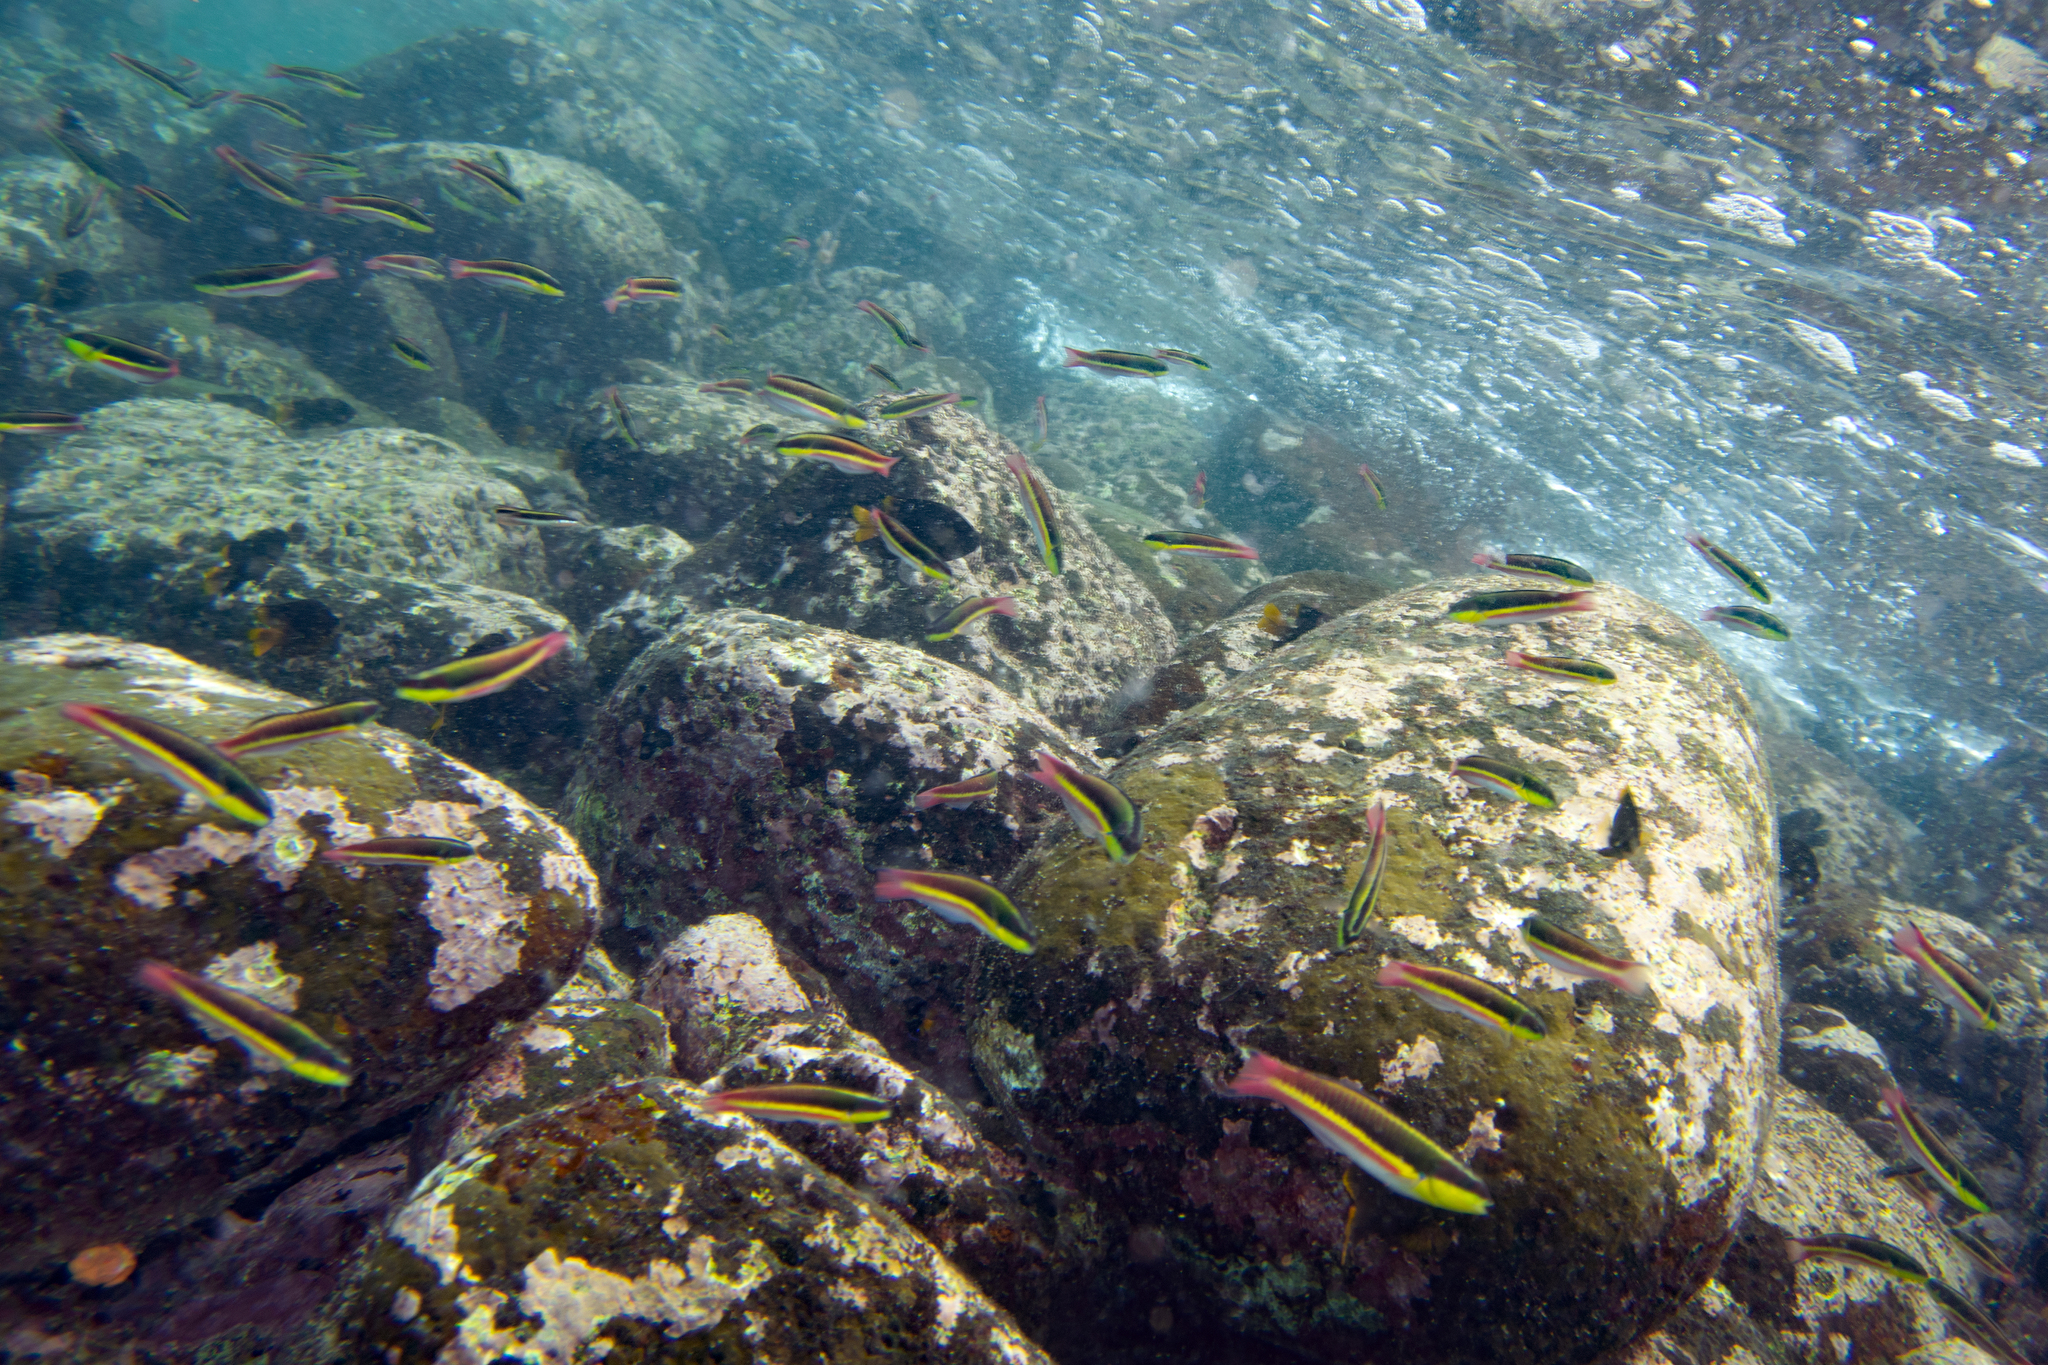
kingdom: Animalia
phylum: Chordata
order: Perciformes
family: Labridae
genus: Thalassoma
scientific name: Thalassoma lucasanum
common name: Cortez rainbow wrasse
